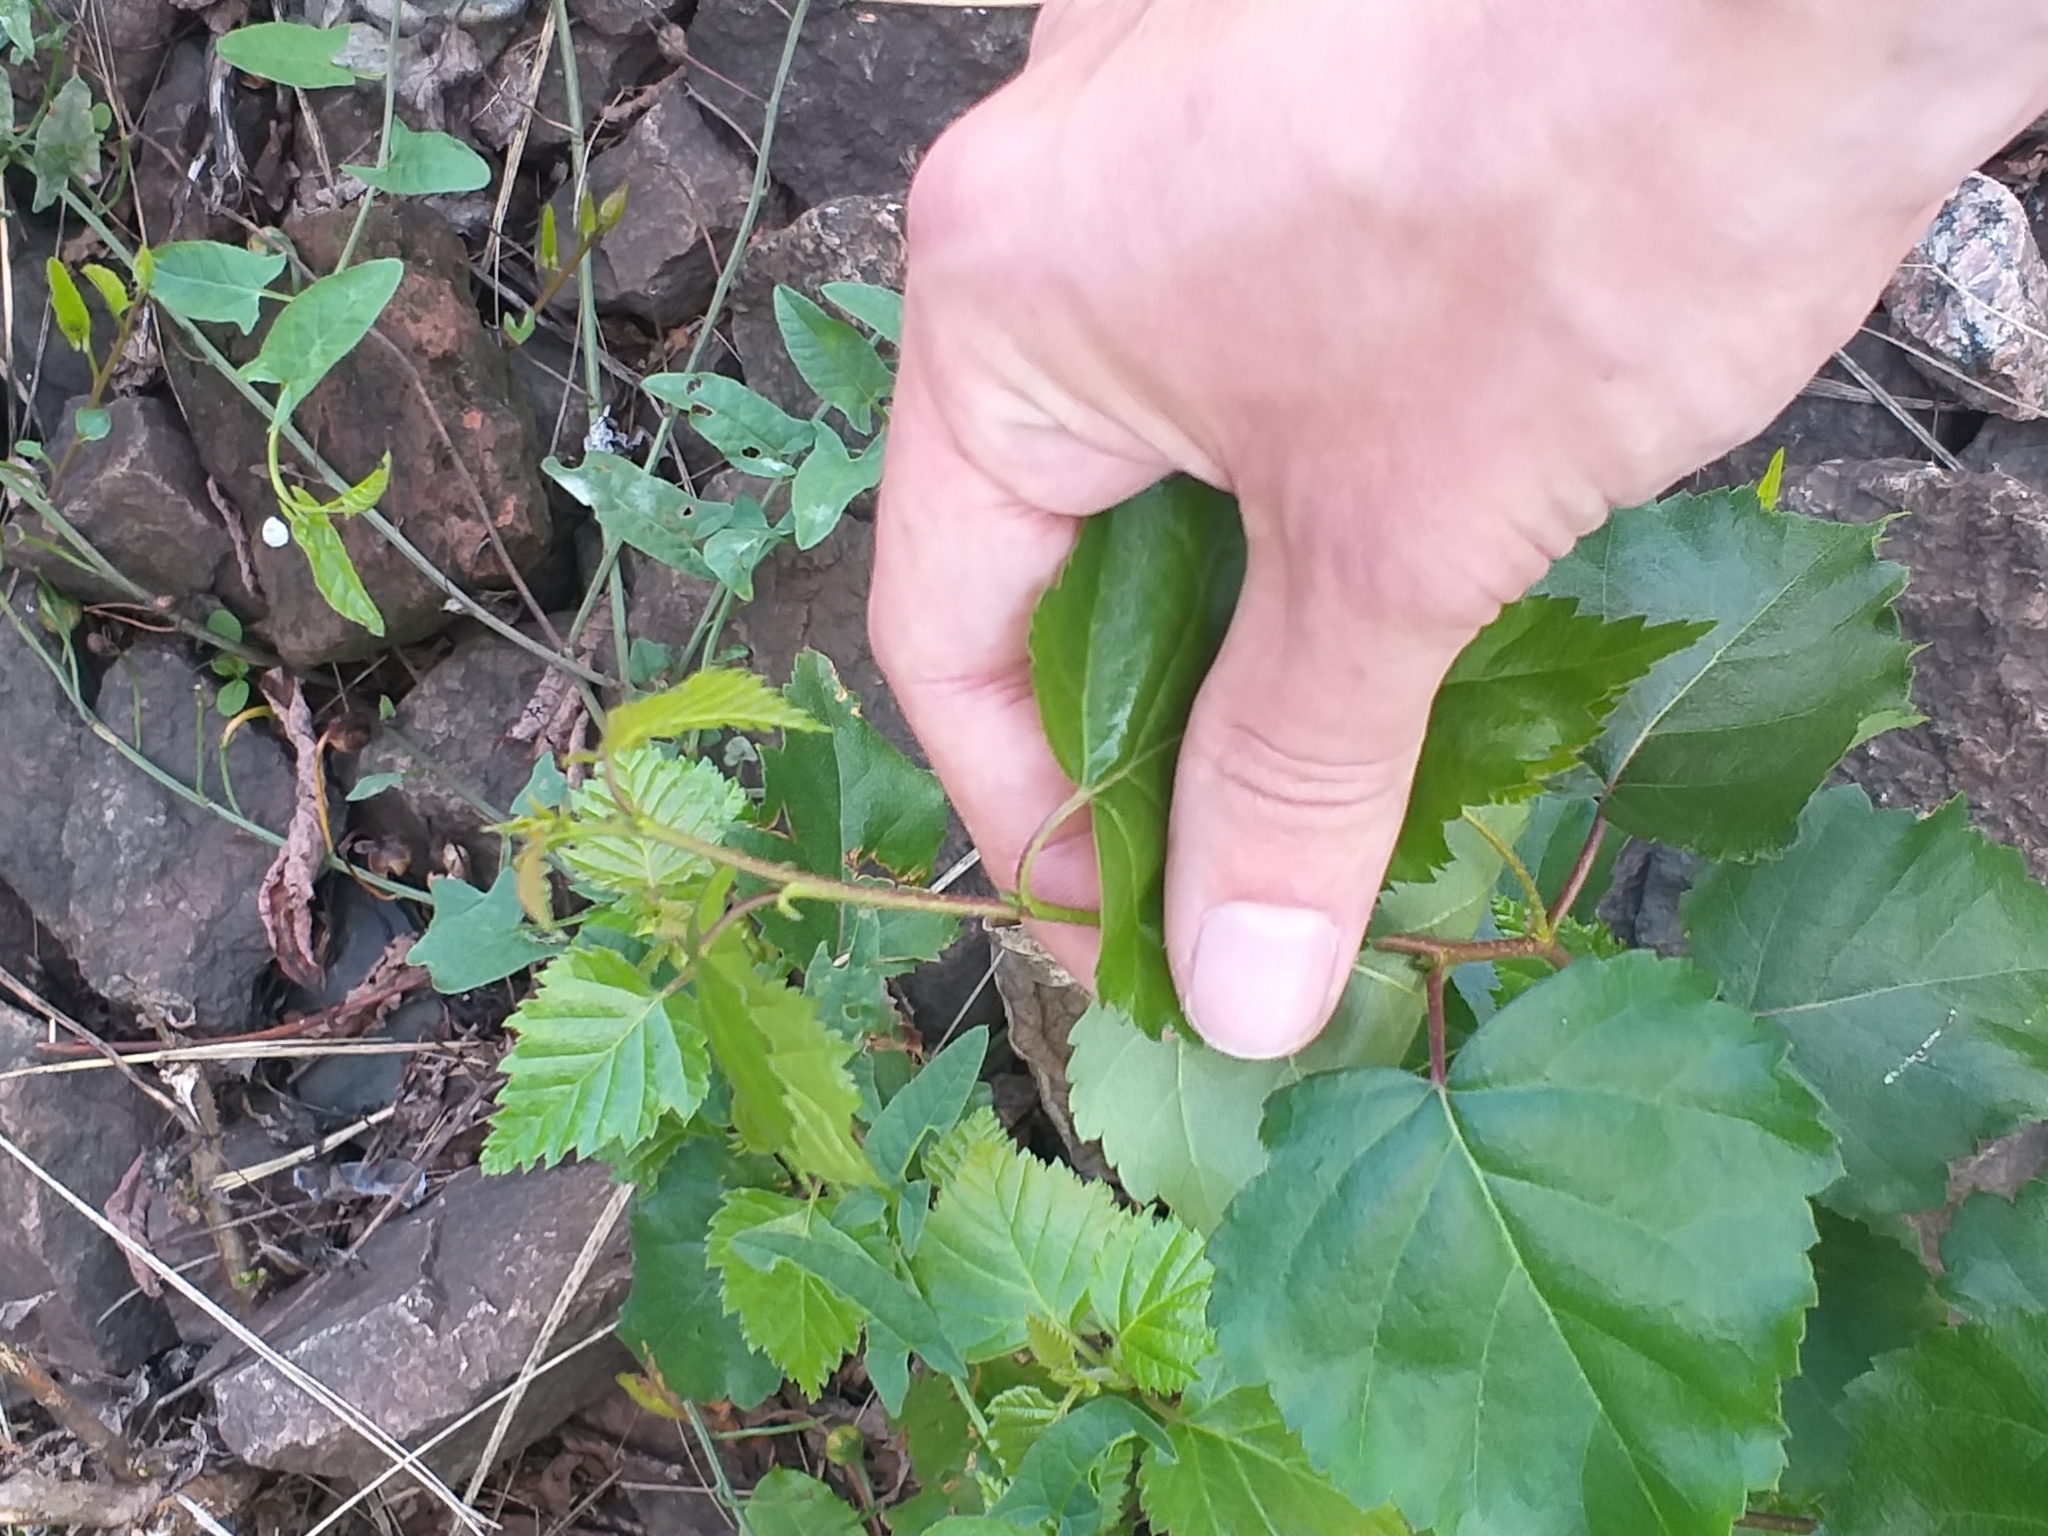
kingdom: Plantae
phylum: Tracheophyta
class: Magnoliopsida
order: Fagales
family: Betulaceae
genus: Betula
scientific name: Betula pendula
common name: Silver birch
